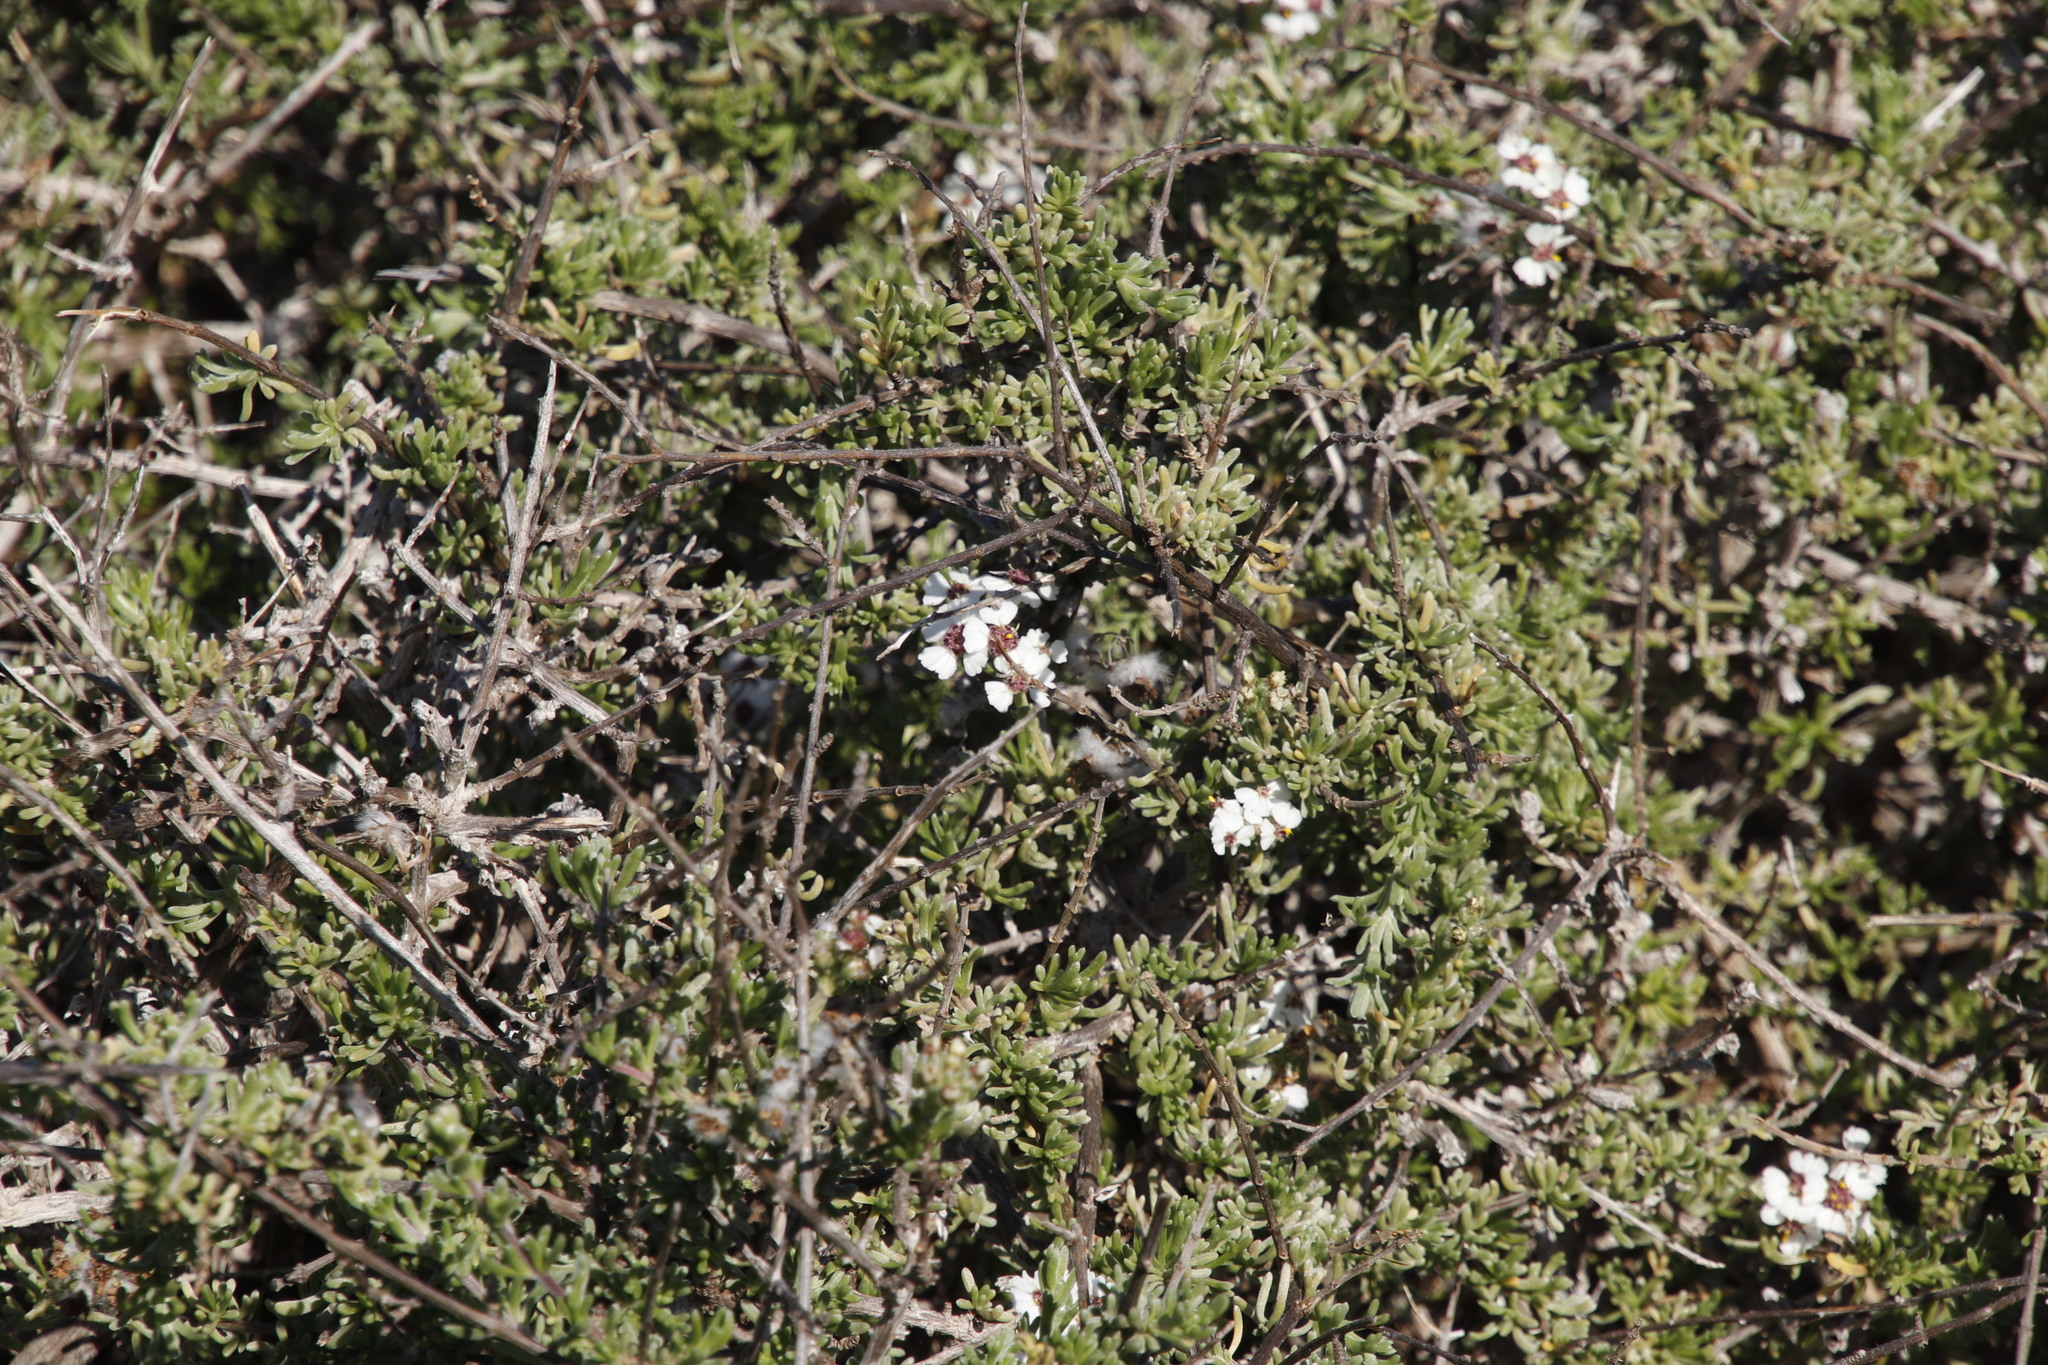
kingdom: Plantae
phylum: Tracheophyta
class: Magnoliopsida
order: Asterales
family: Asteraceae
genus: Eriocephalus
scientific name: Eriocephalus africanus
